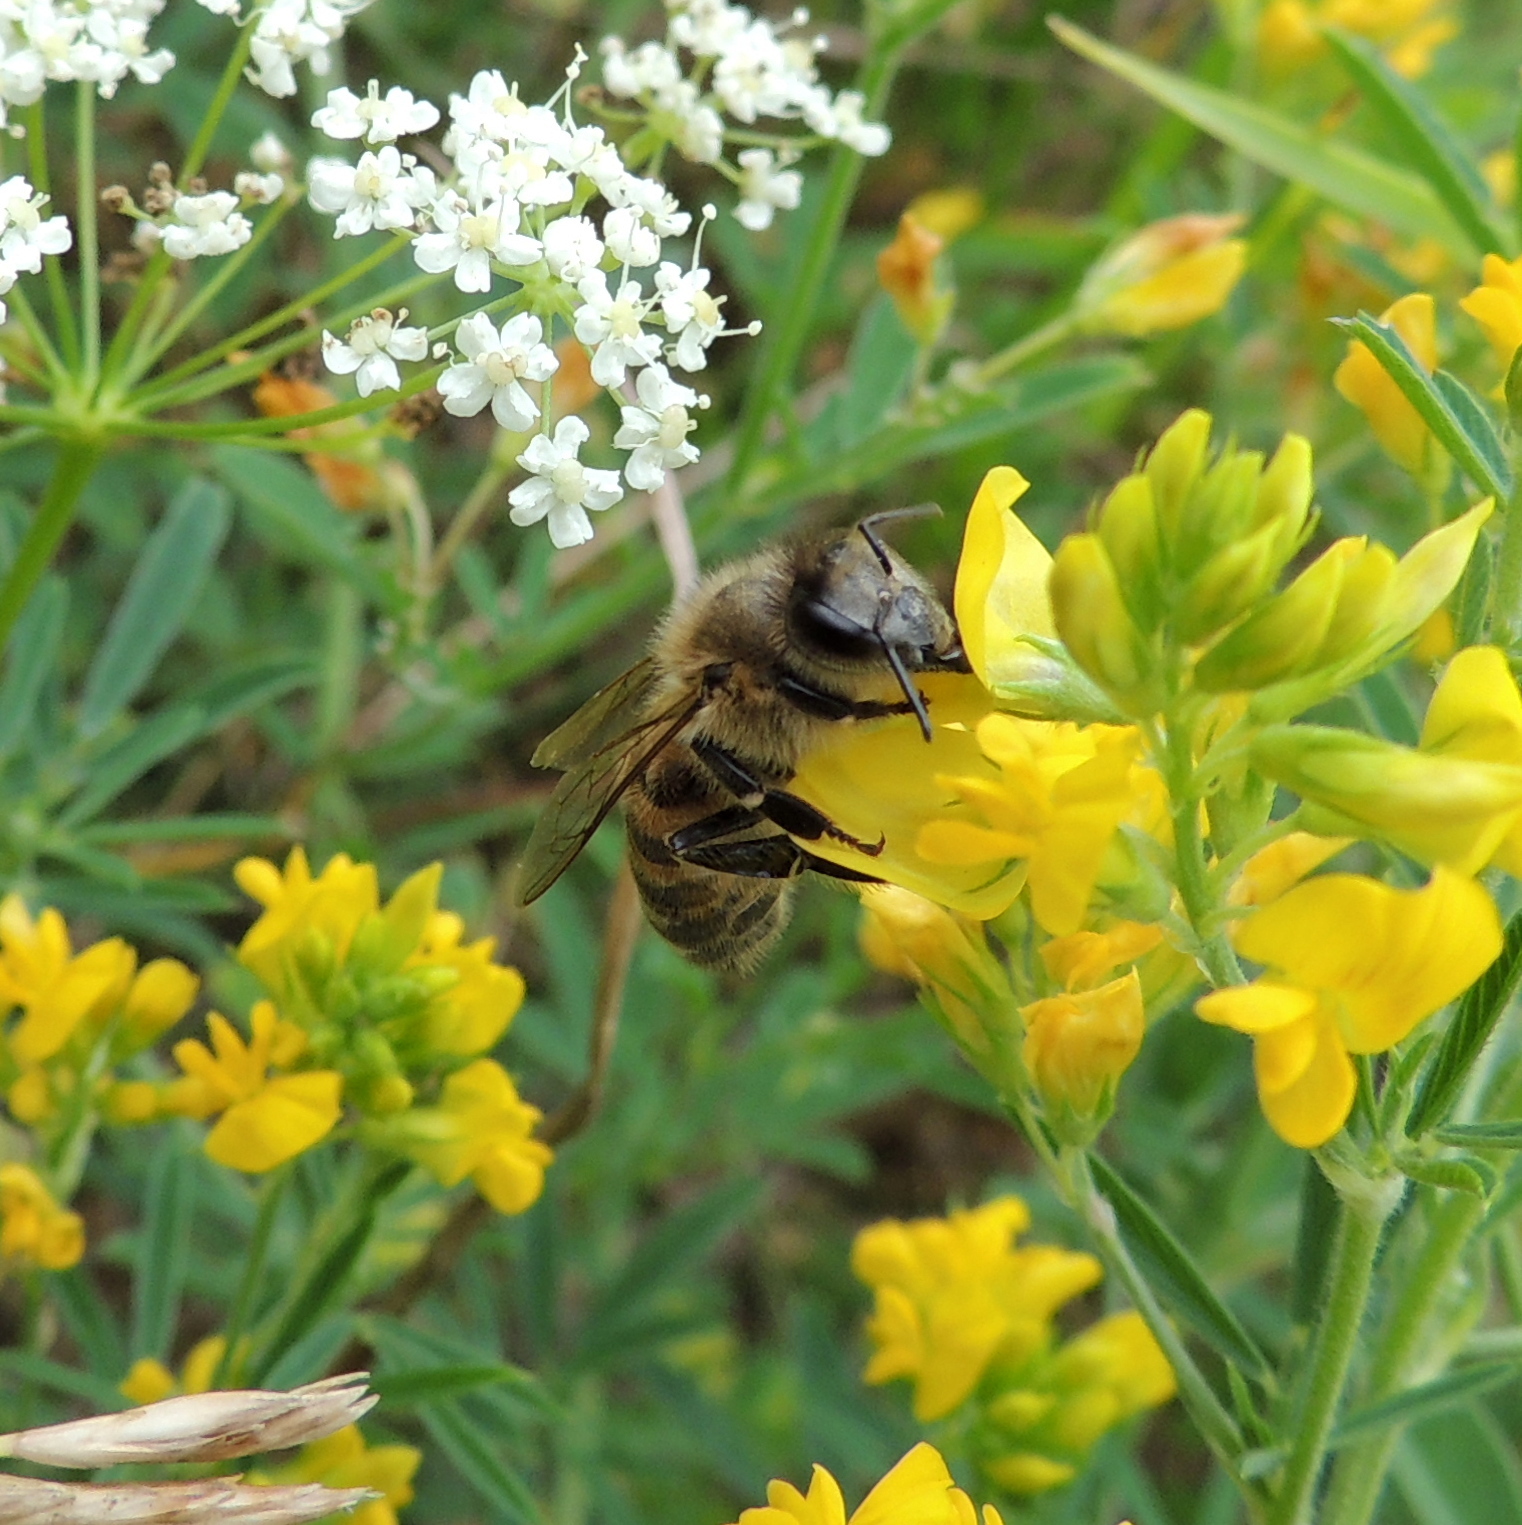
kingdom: Animalia
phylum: Arthropoda
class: Insecta
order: Hymenoptera
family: Apidae
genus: Apis
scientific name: Apis mellifera
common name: Honey bee
